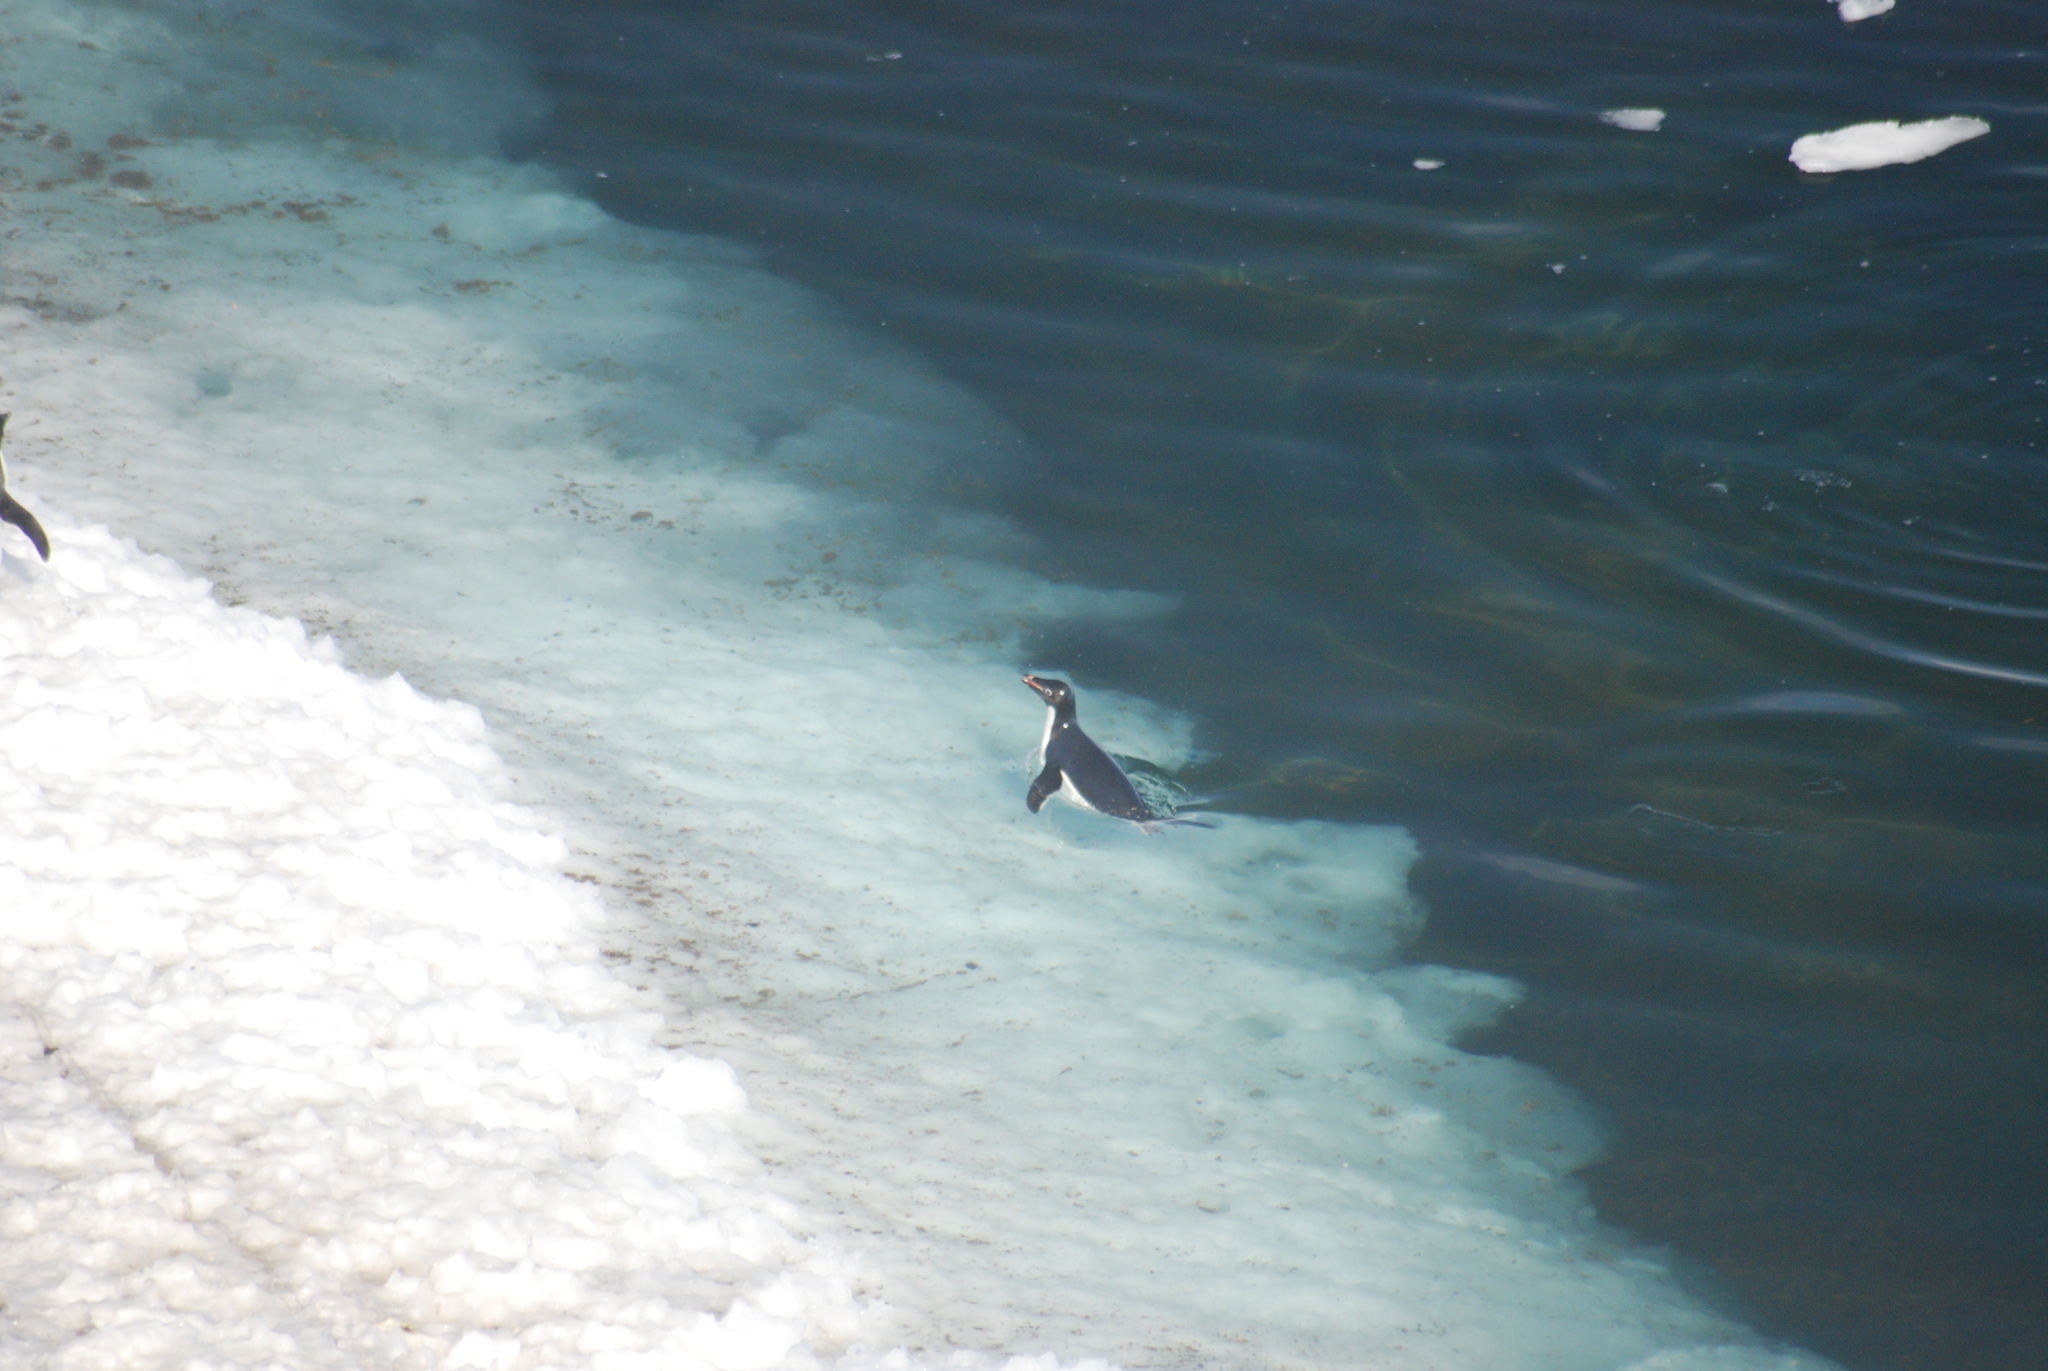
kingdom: Animalia
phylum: Chordata
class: Aves
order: Sphenisciformes
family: Spheniscidae
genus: Pygoscelis
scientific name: Pygoscelis adeliae
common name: Adelie penguin
